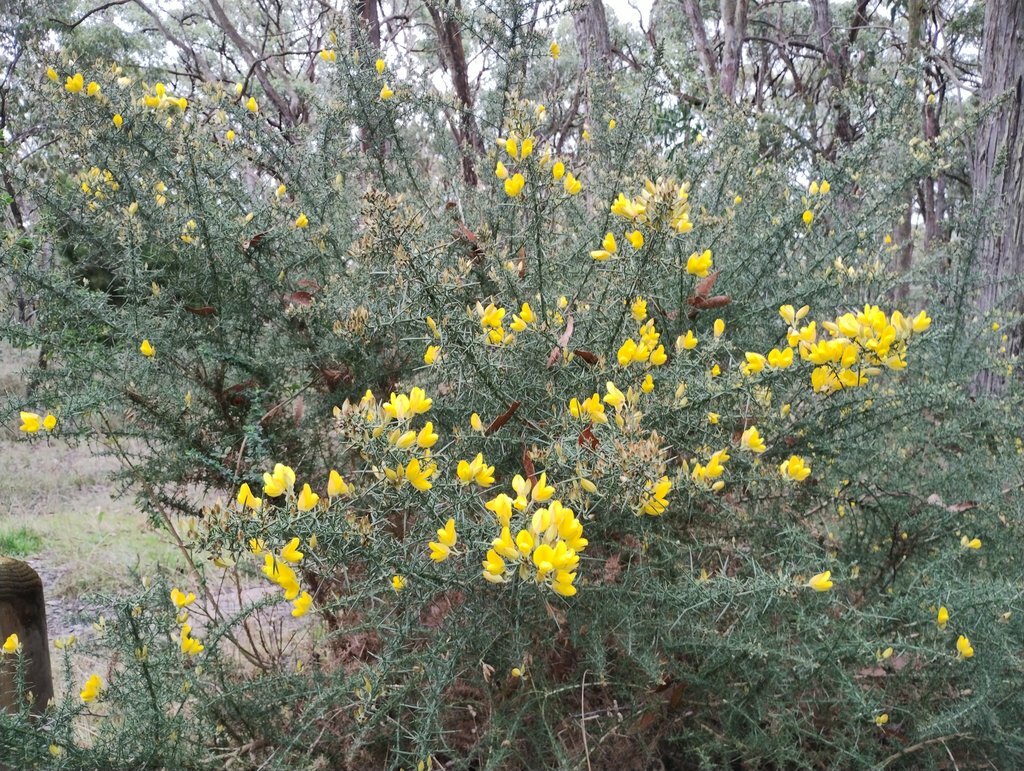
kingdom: Plantae
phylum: Tracheophyta
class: Magnoliopsida
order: Fabales
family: Fabaceae
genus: Ulex
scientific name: Ulex europaeus
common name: Common gorse
